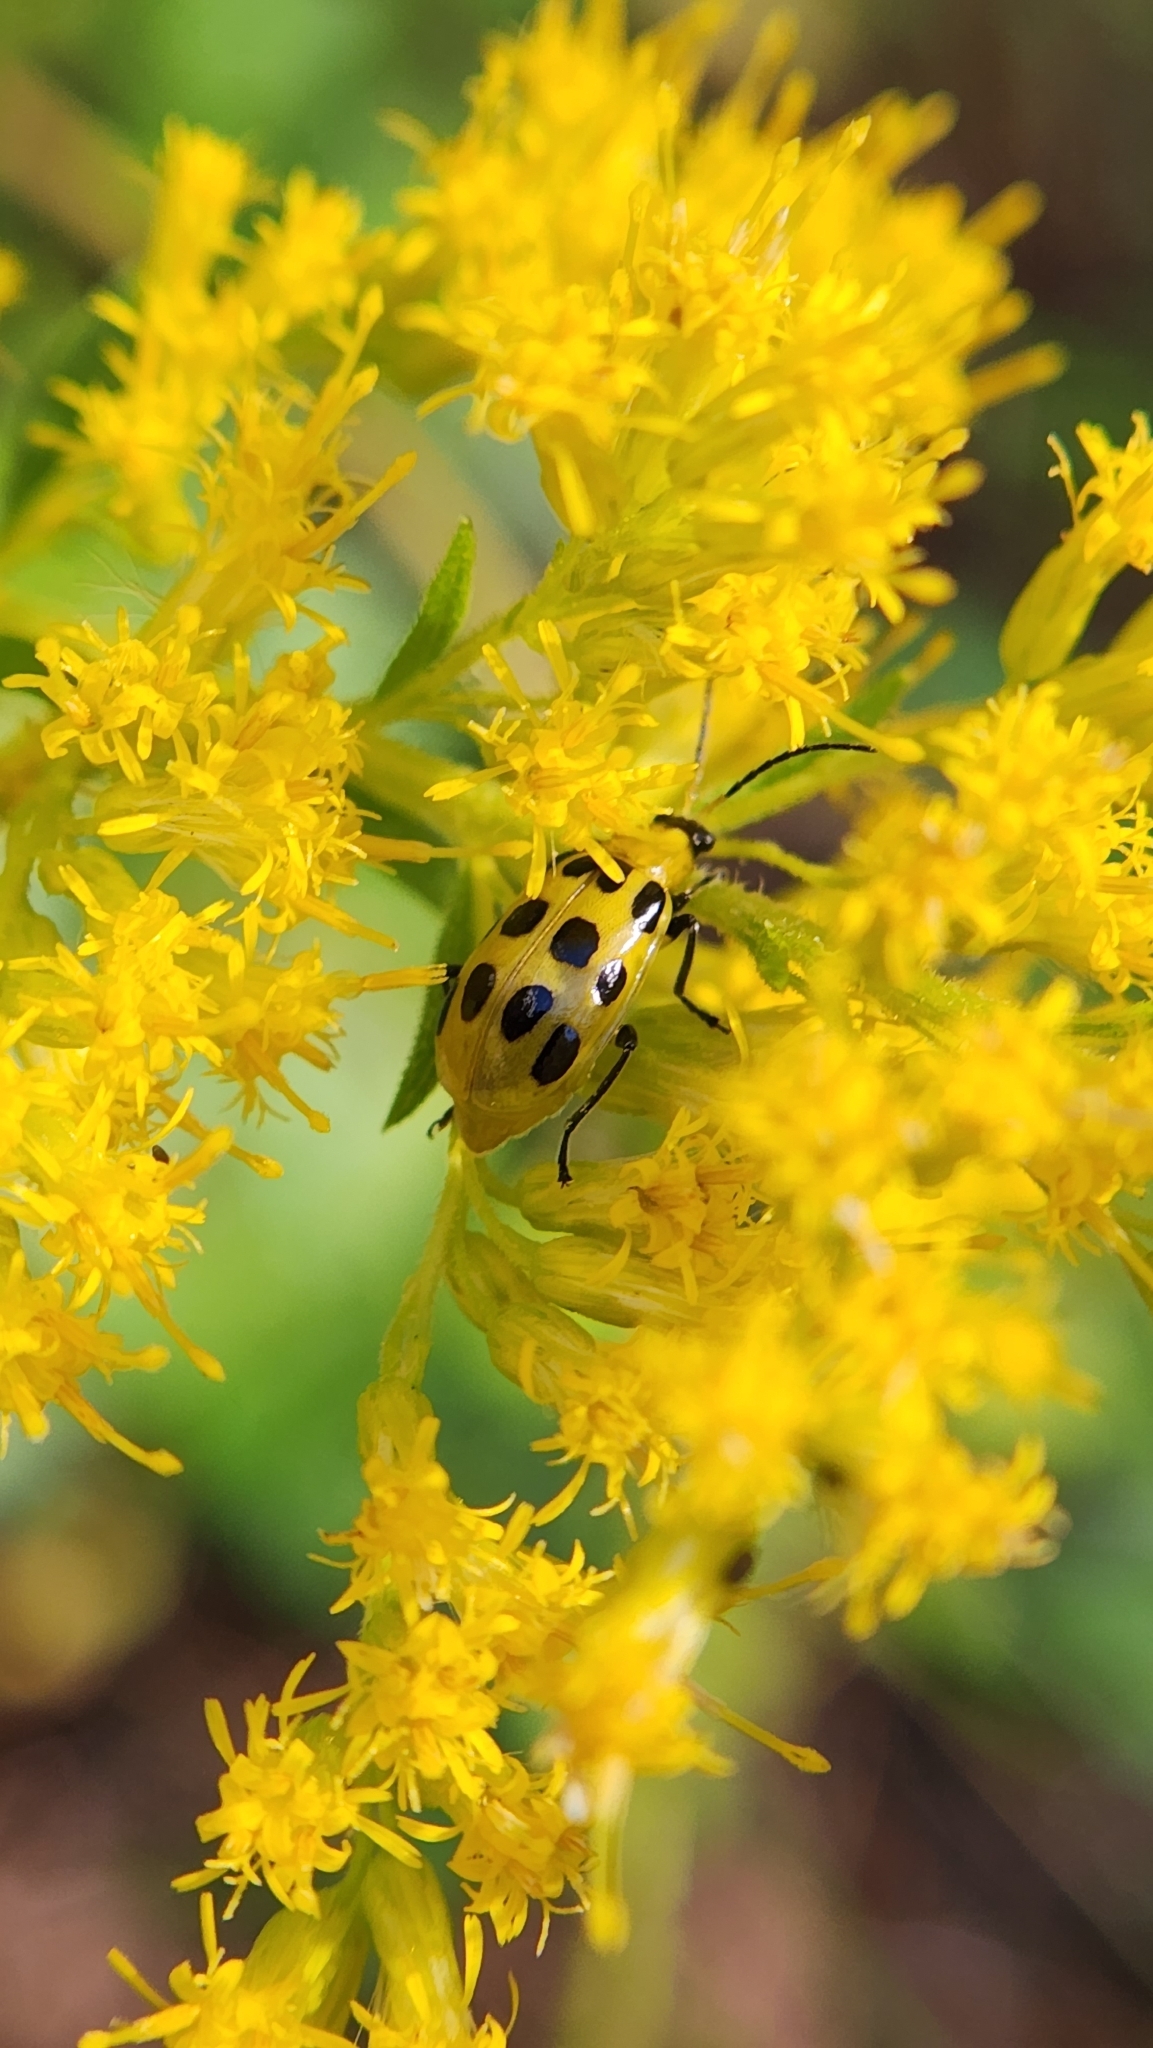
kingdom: Animalia
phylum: Arthropoda
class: Insecta
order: Coleoptera
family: Chrysomelidae
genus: Diabrotica
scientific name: Diabrotica undecimpunctata
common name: Spotted cucumber beetle
